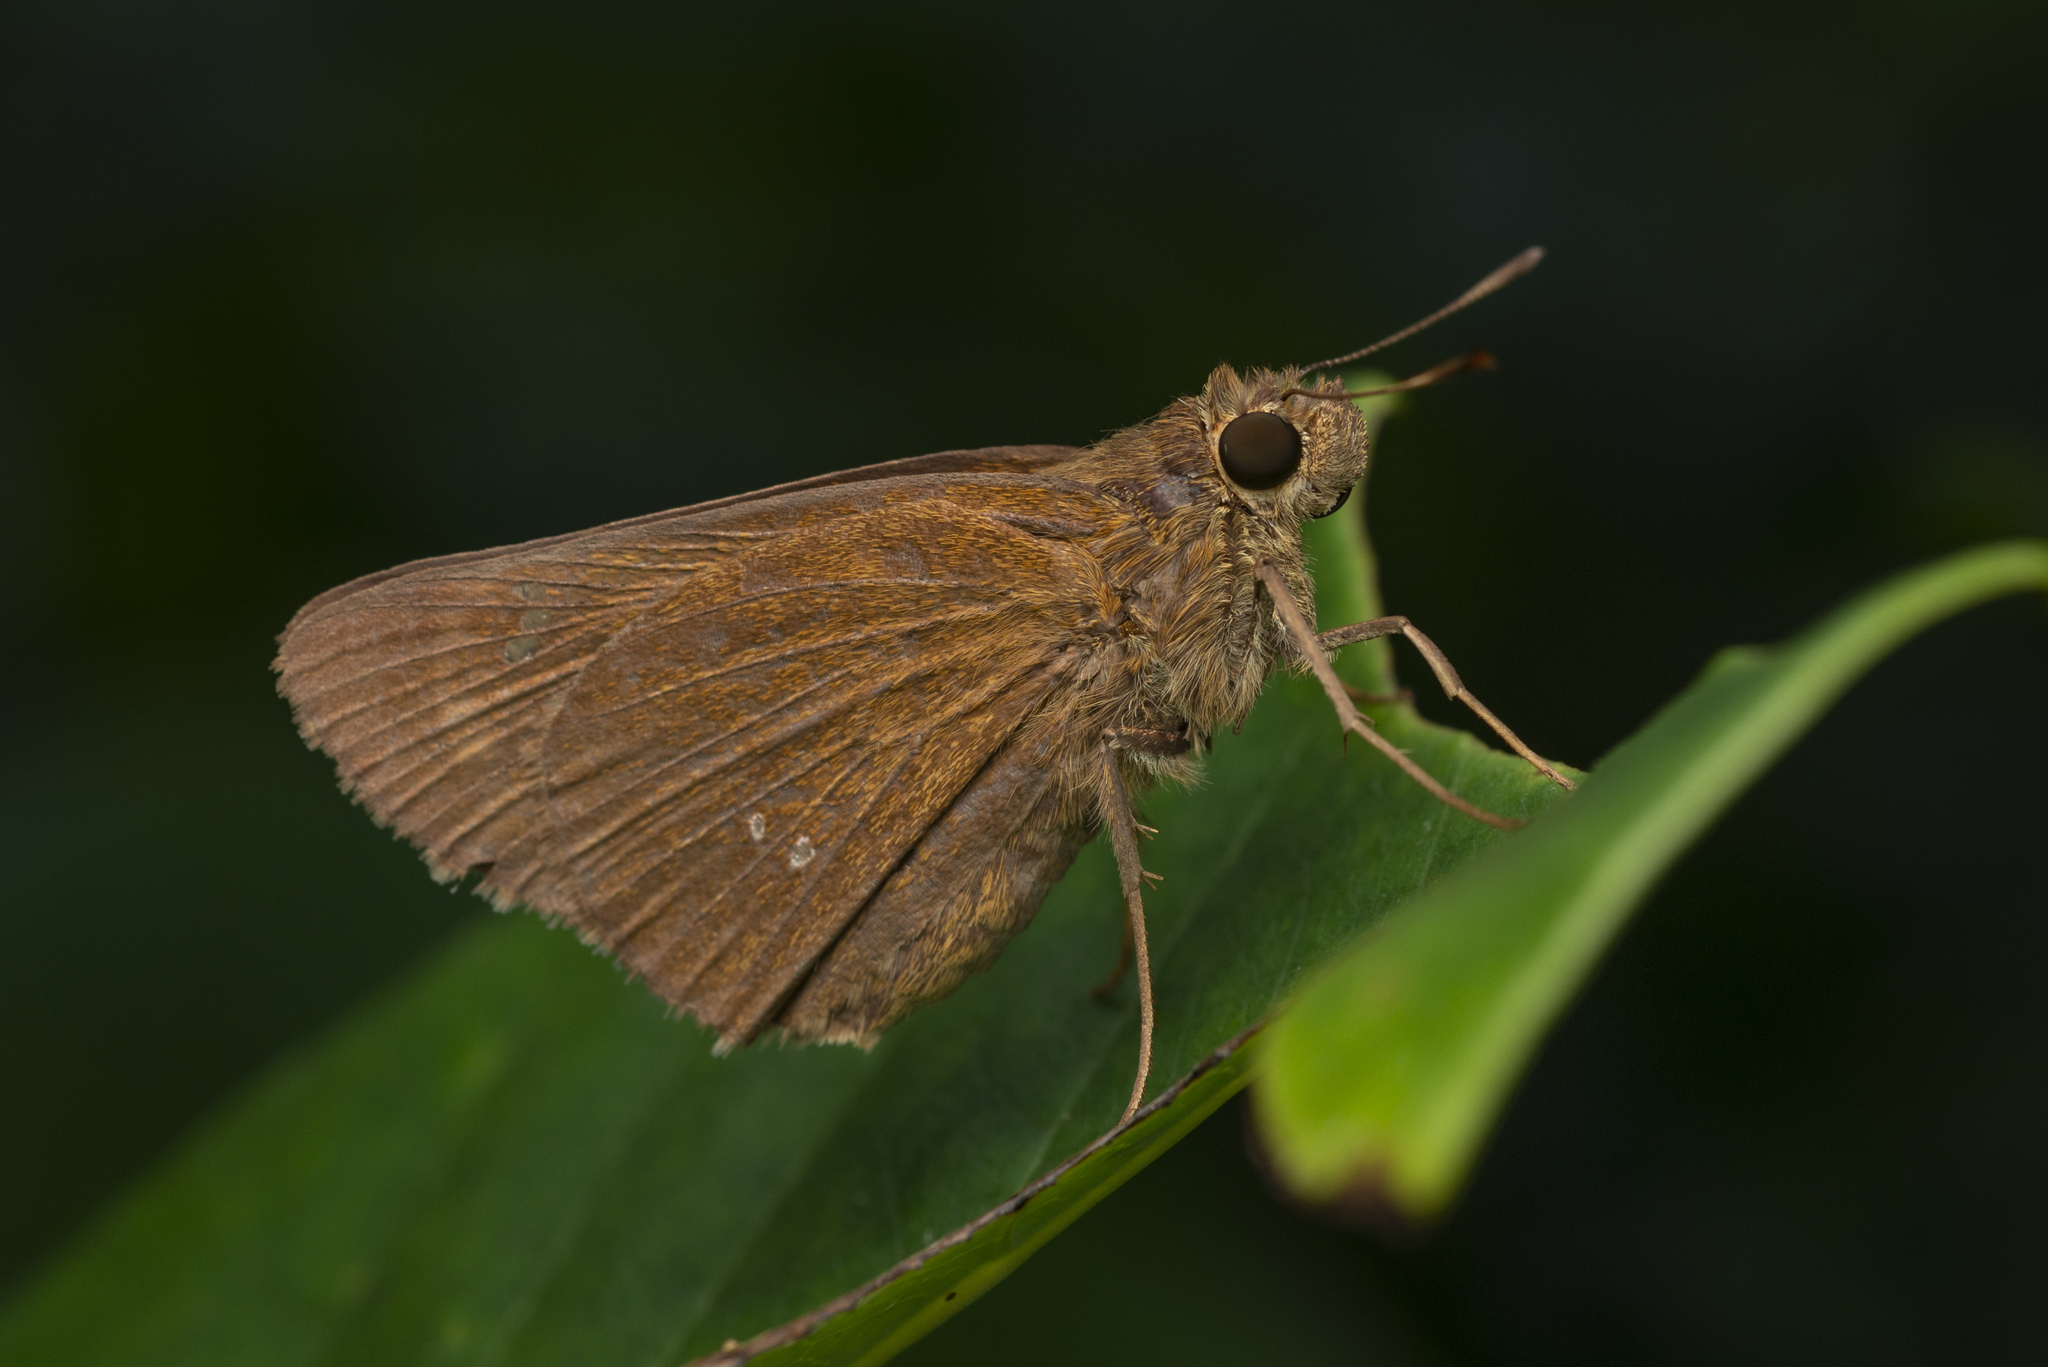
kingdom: Animalia
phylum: Arthropoda
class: Insecta
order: Lepidoptera
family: Hesperiidae
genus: Caltoris
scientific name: Caltoris bromus
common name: Colon swift
